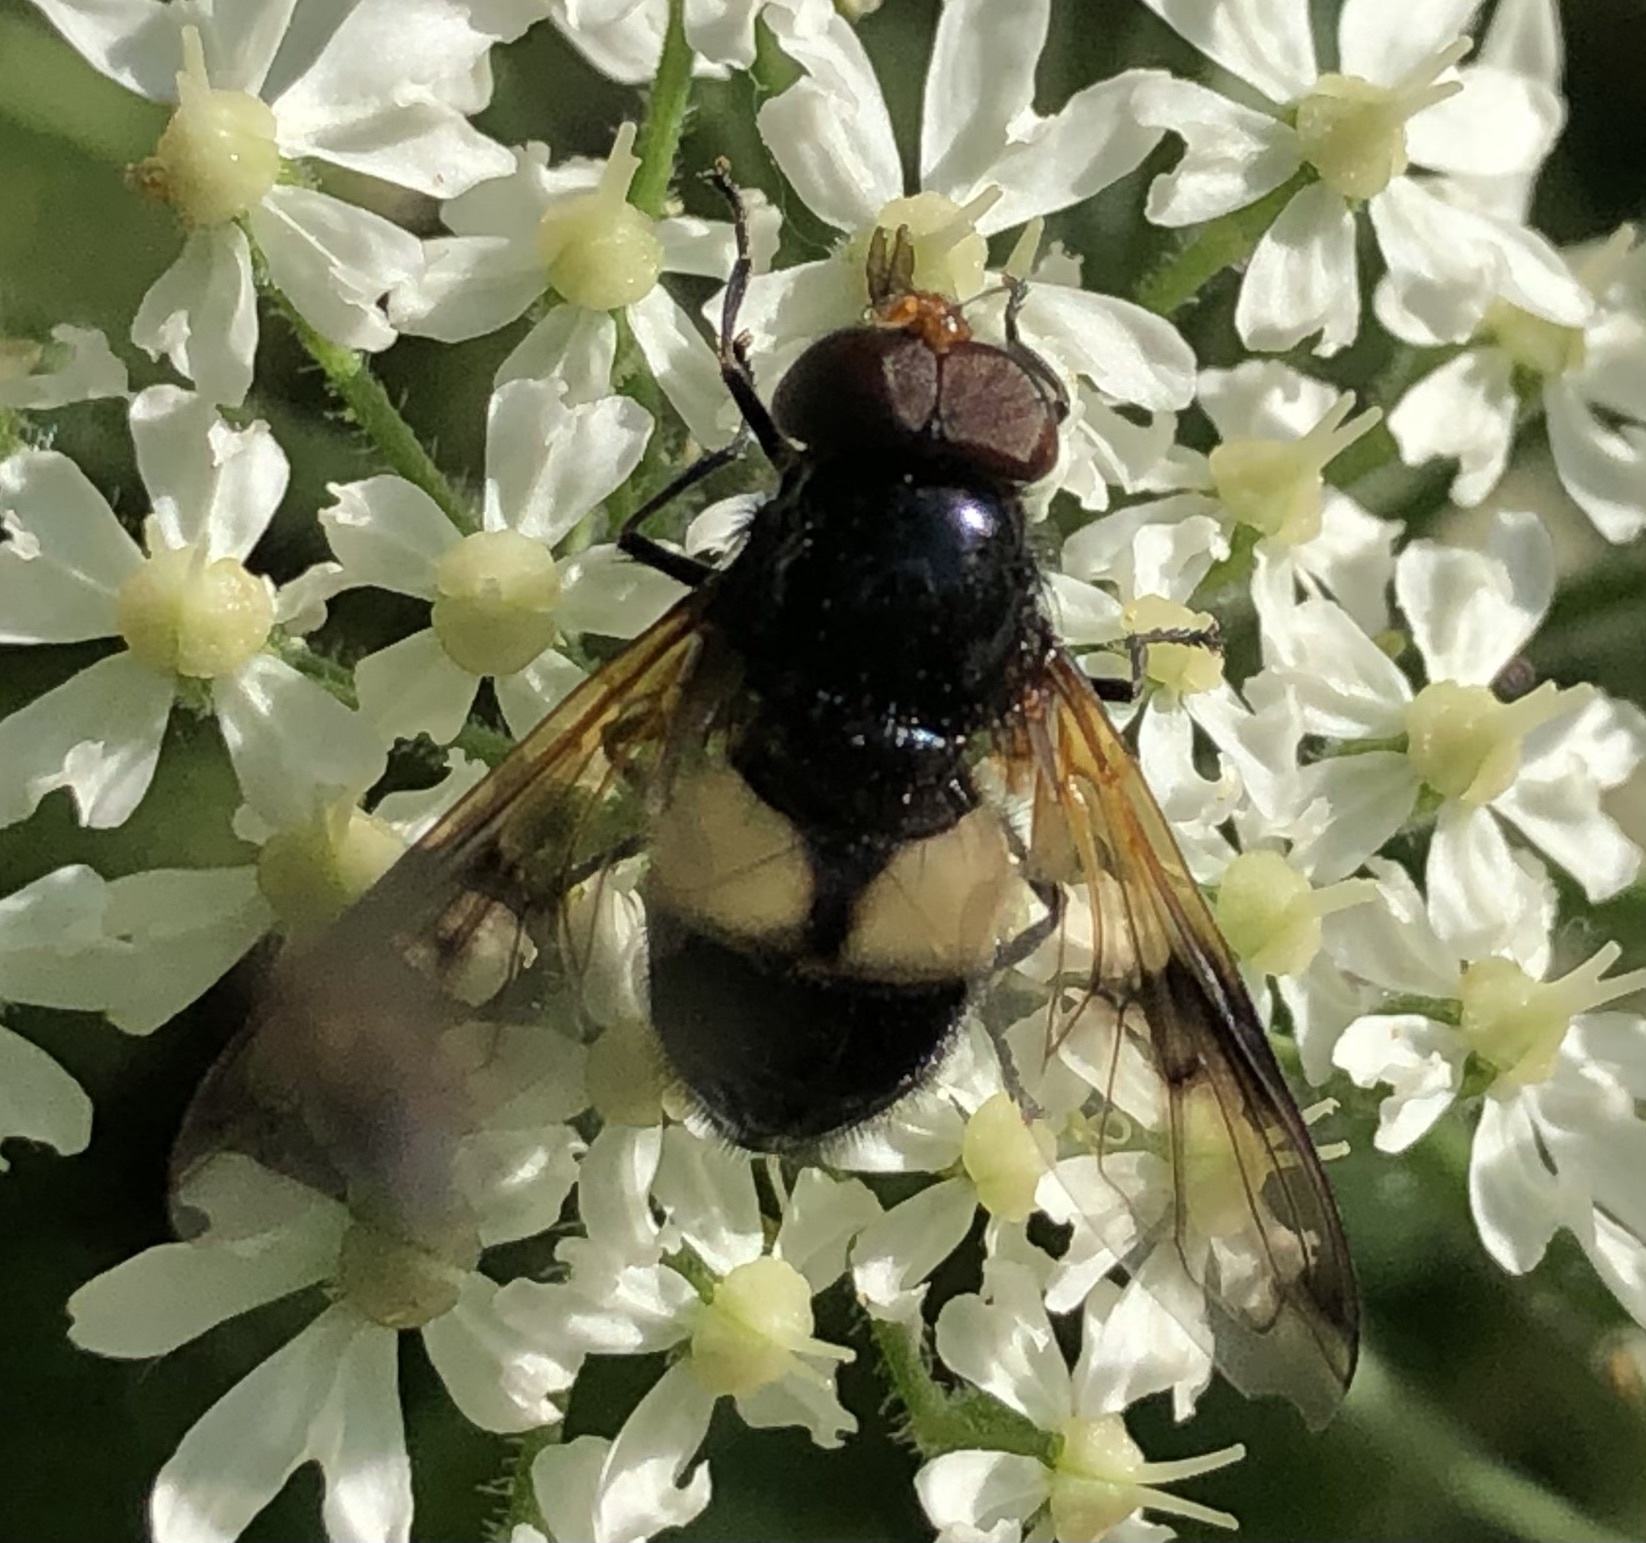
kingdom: Animalia
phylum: Arthropoda
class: Insecta
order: Diptera
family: Syrphidae
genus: Volucella
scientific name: Volucella pellucens
